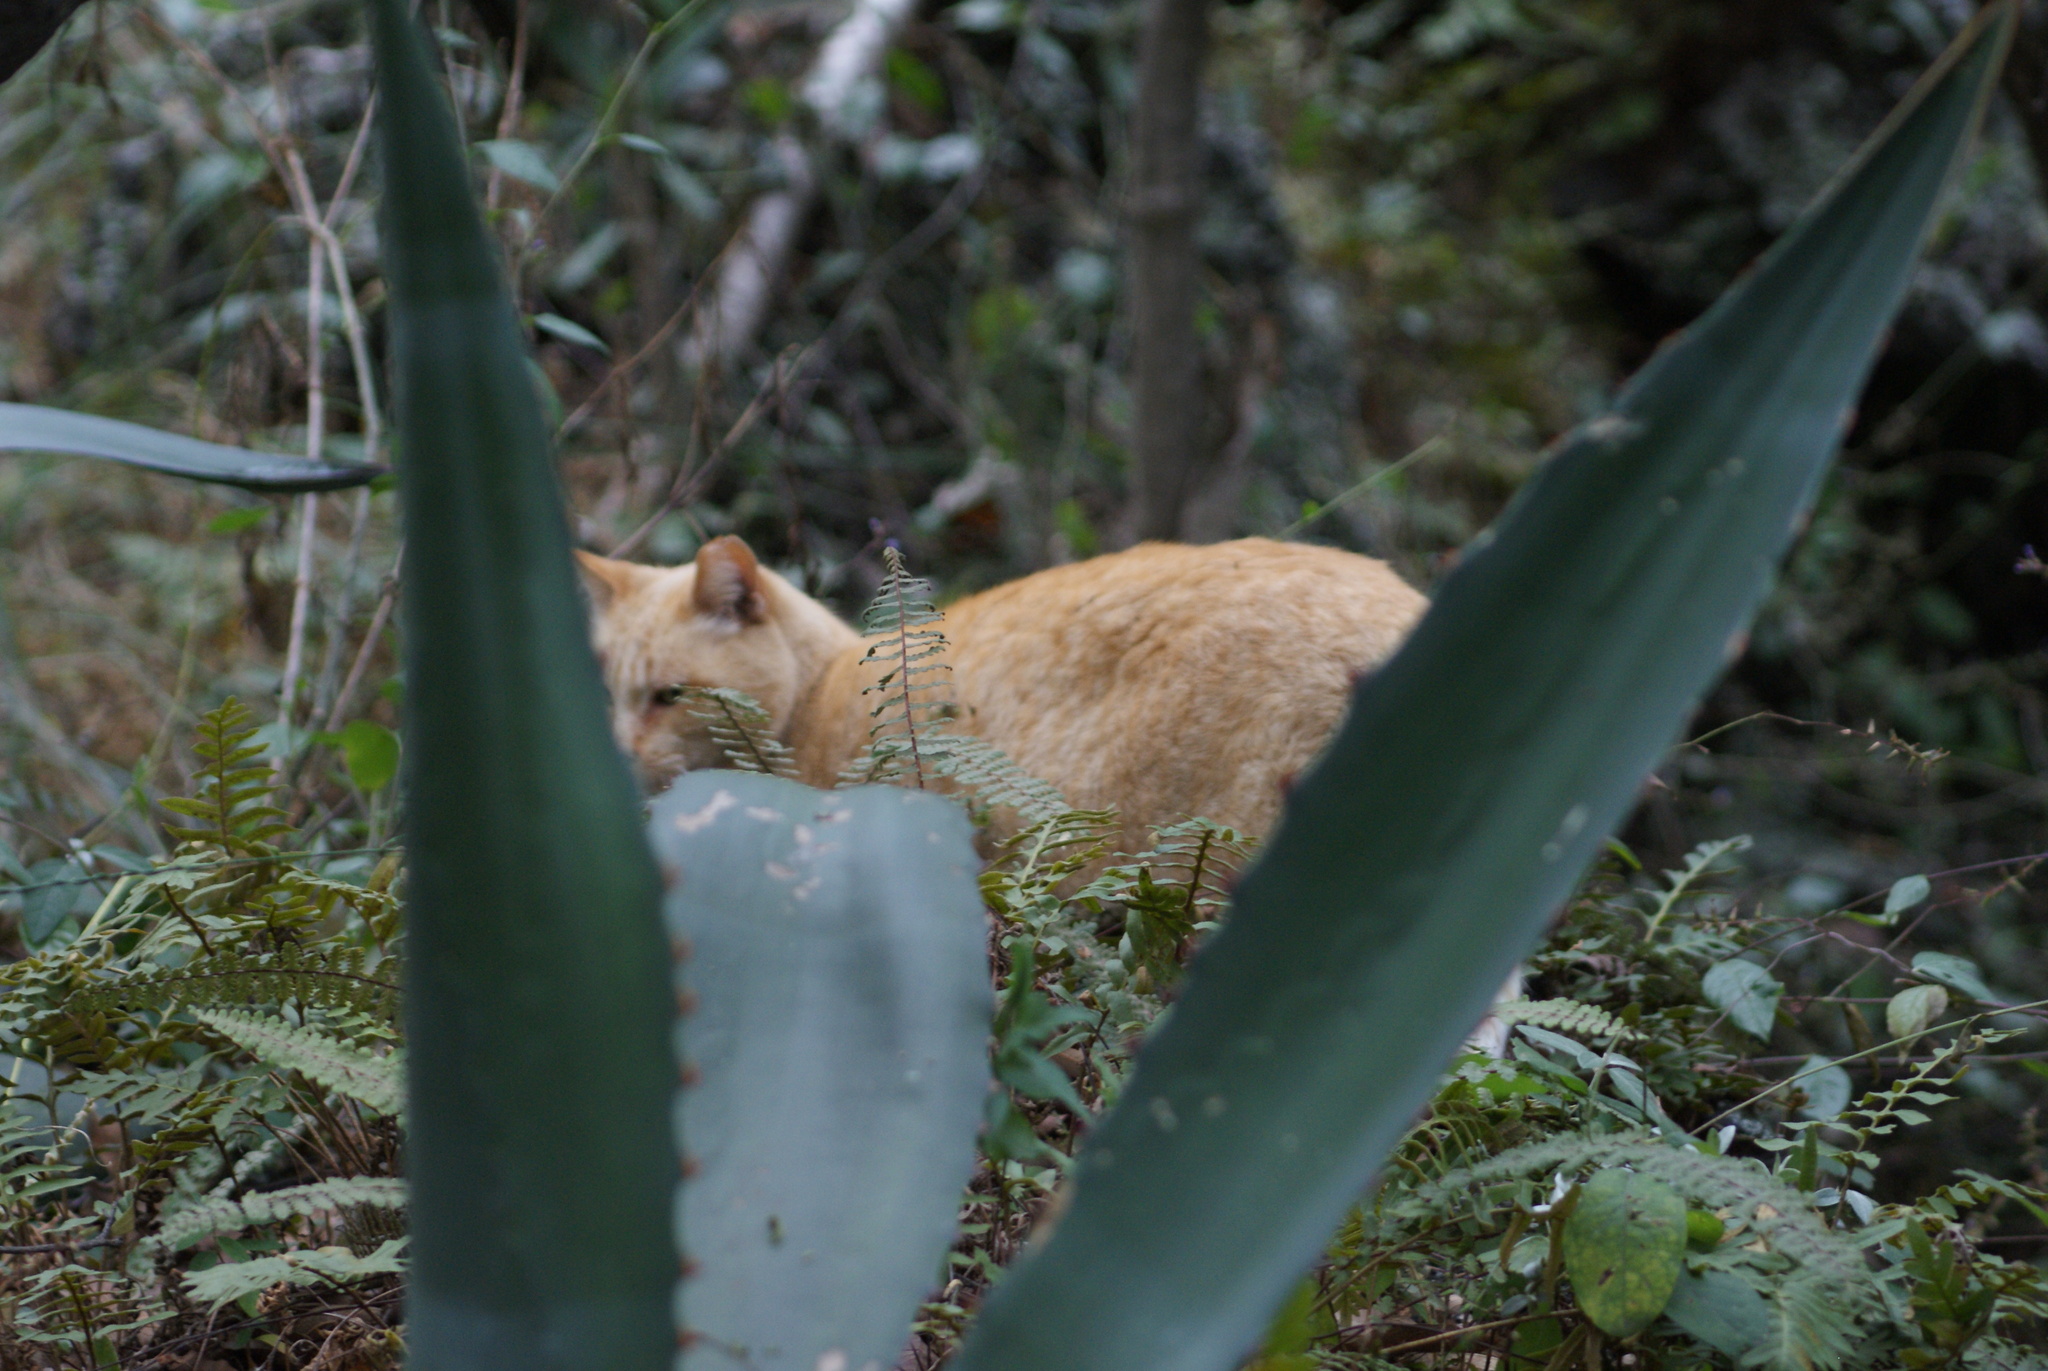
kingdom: Animalia
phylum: Chordata
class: Mammalia
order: Carnivora
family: Felidae
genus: Felis
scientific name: Felis catus
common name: Domestic cat
